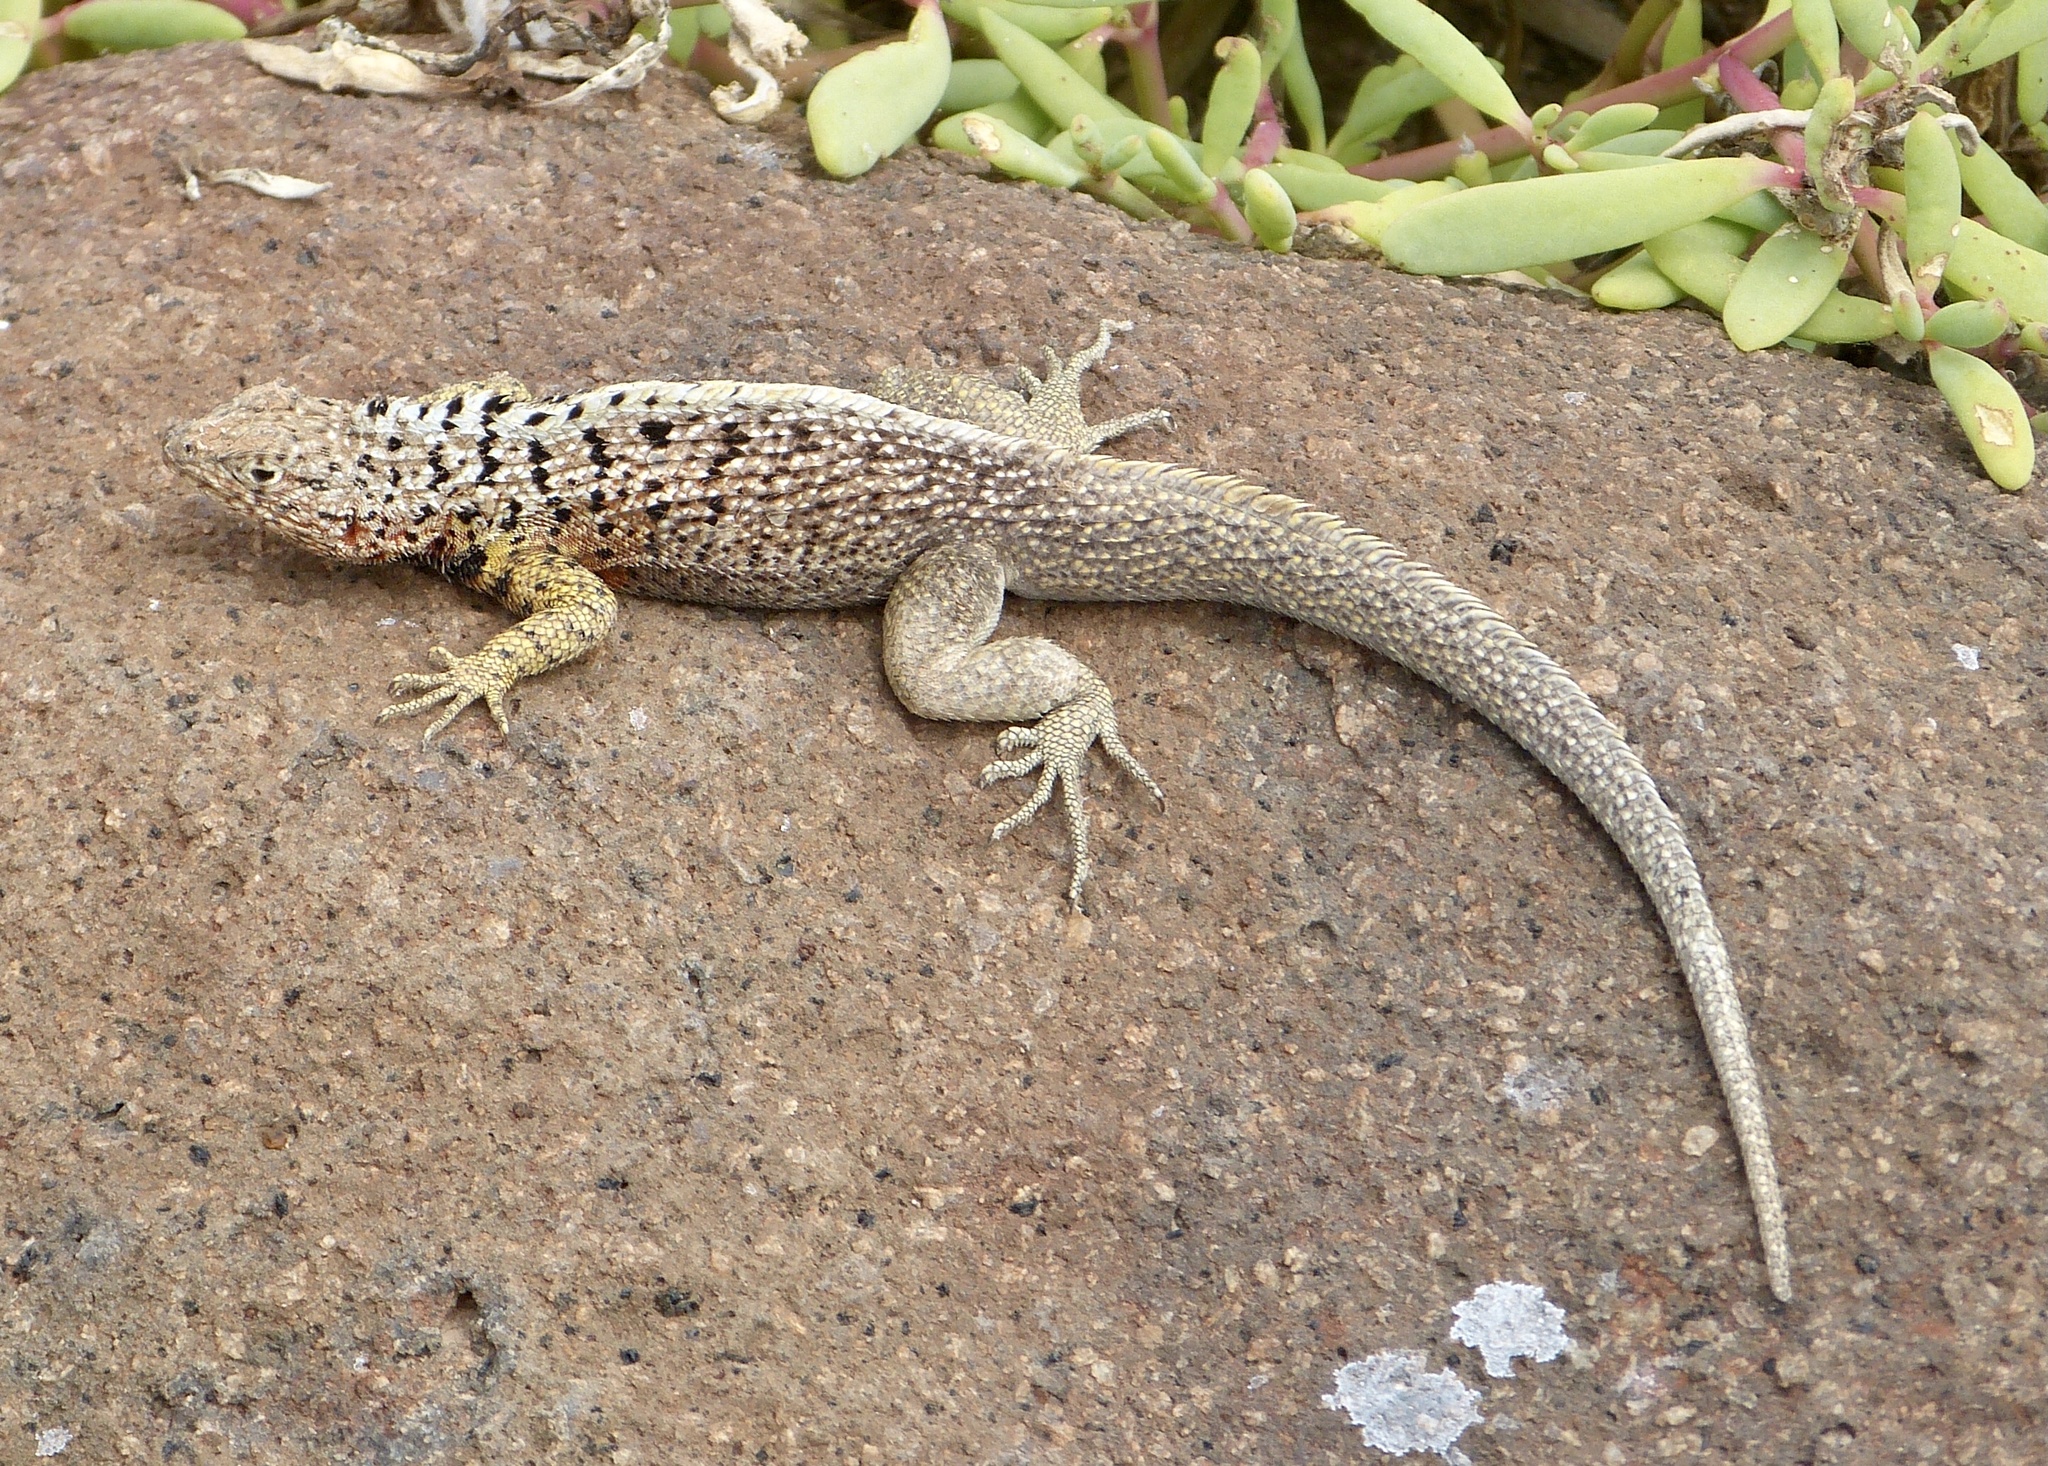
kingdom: Animalia
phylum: Chordata
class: Squamata
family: Tropiduridae
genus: Microlophus
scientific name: Microlophus indefatigabilis
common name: Galapagos lava lizard
